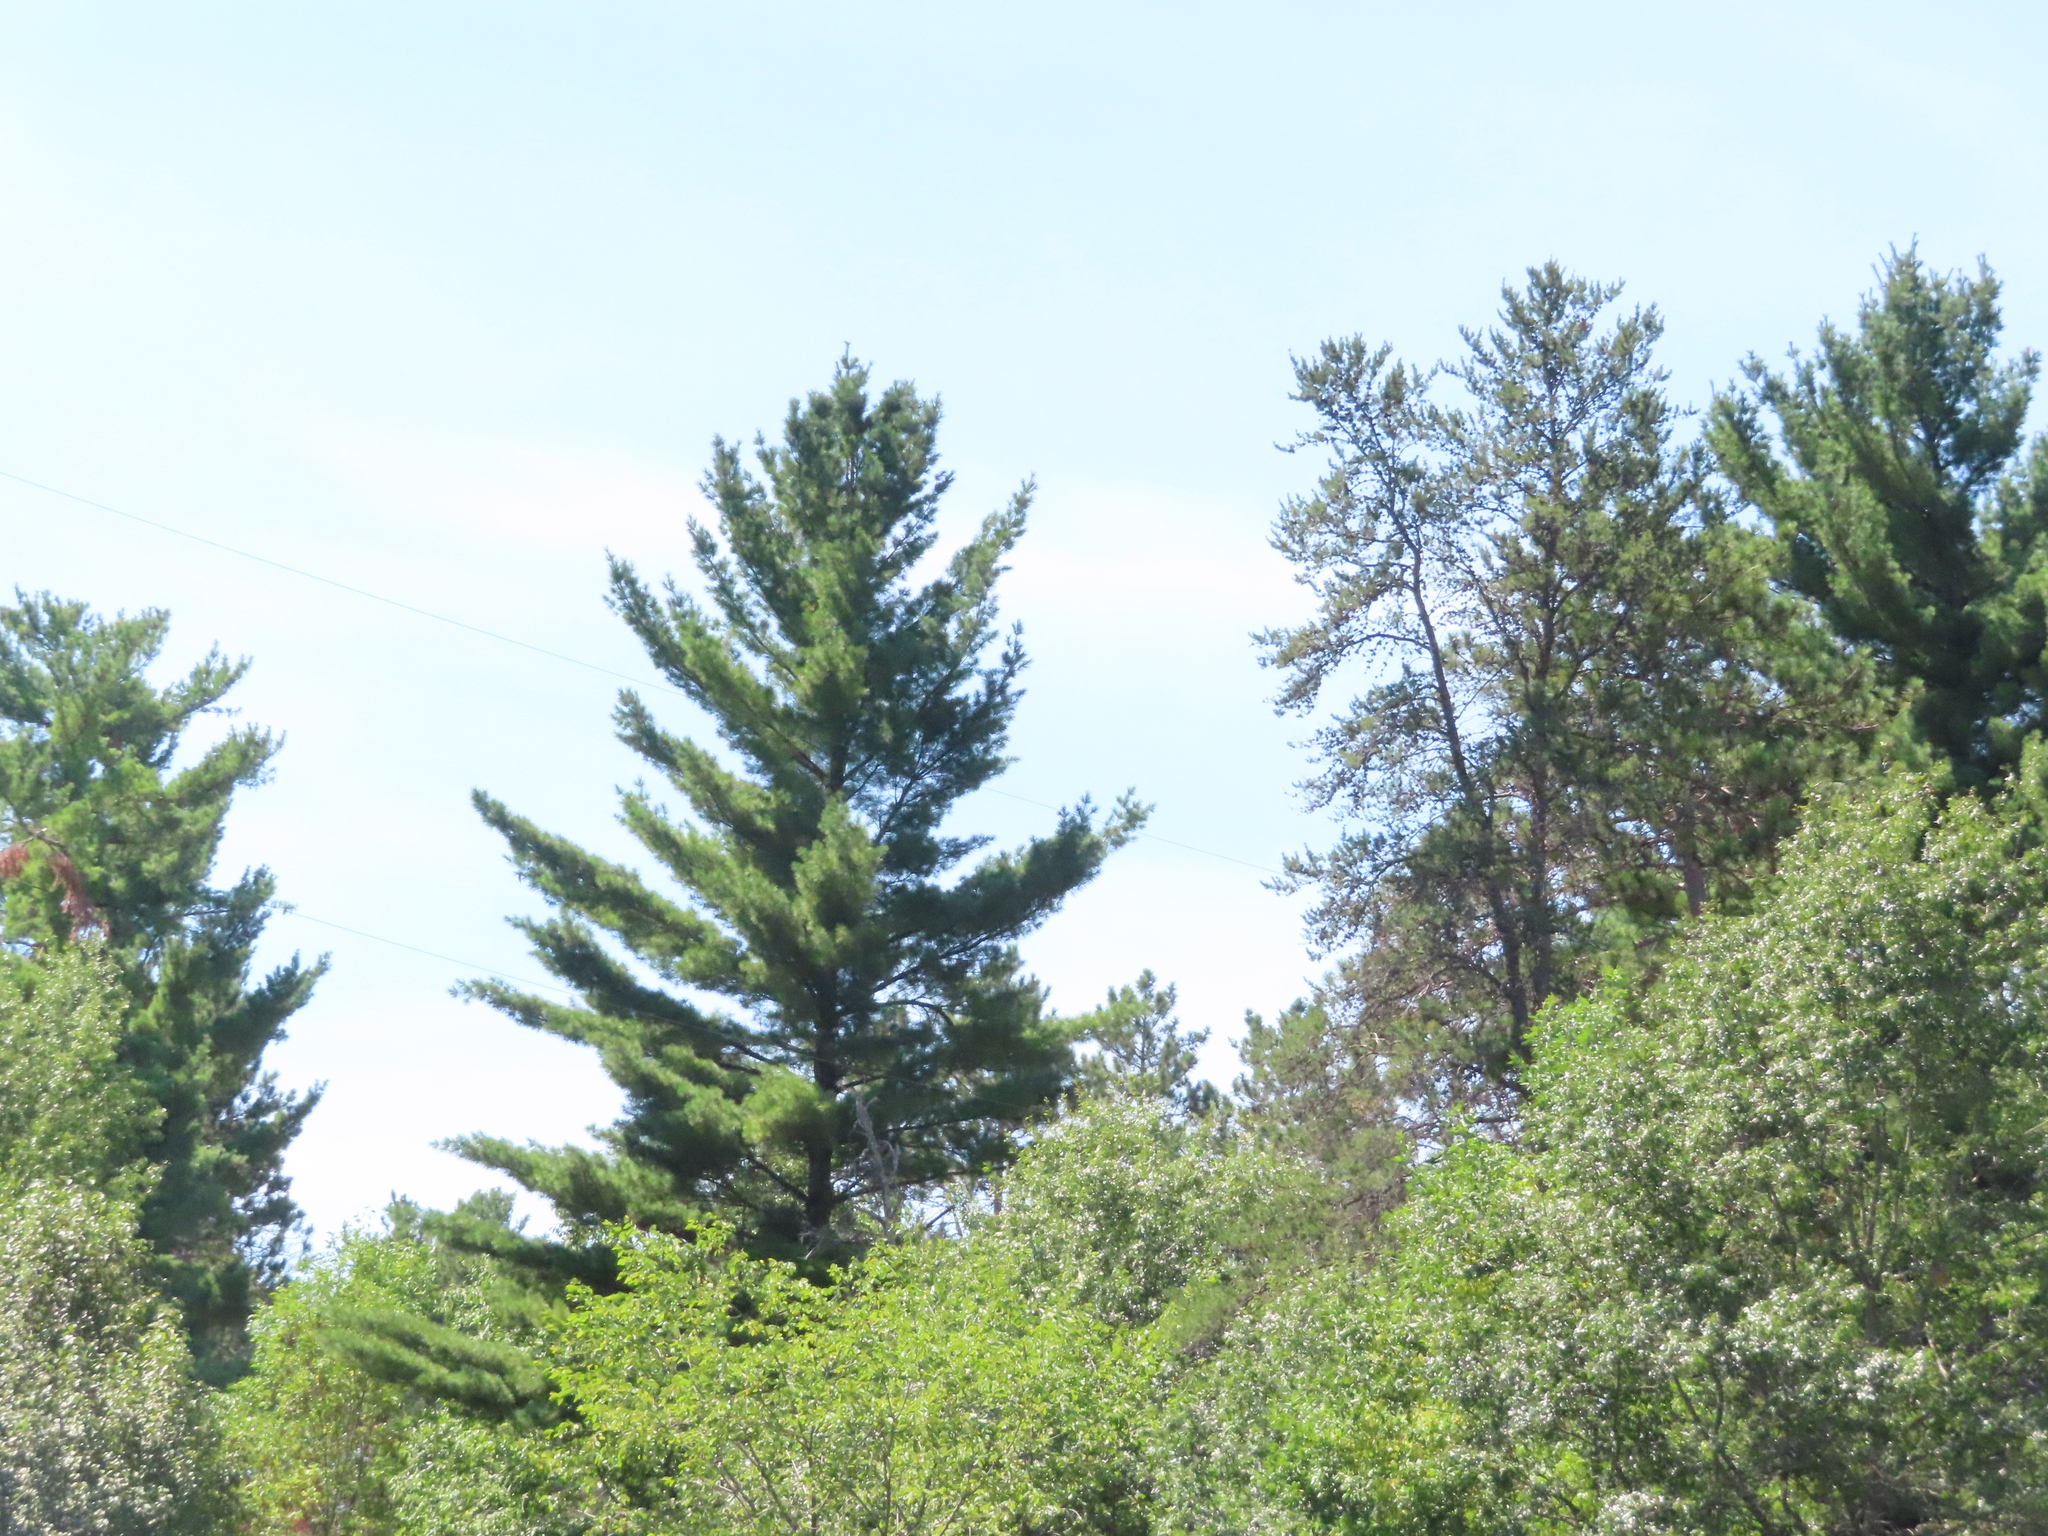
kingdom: Plantae
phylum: Tracheophyta
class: Pinopsida
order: Pinales
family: Pinaceae
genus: Pinus
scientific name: Pinus strobus
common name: Weymouth pine
